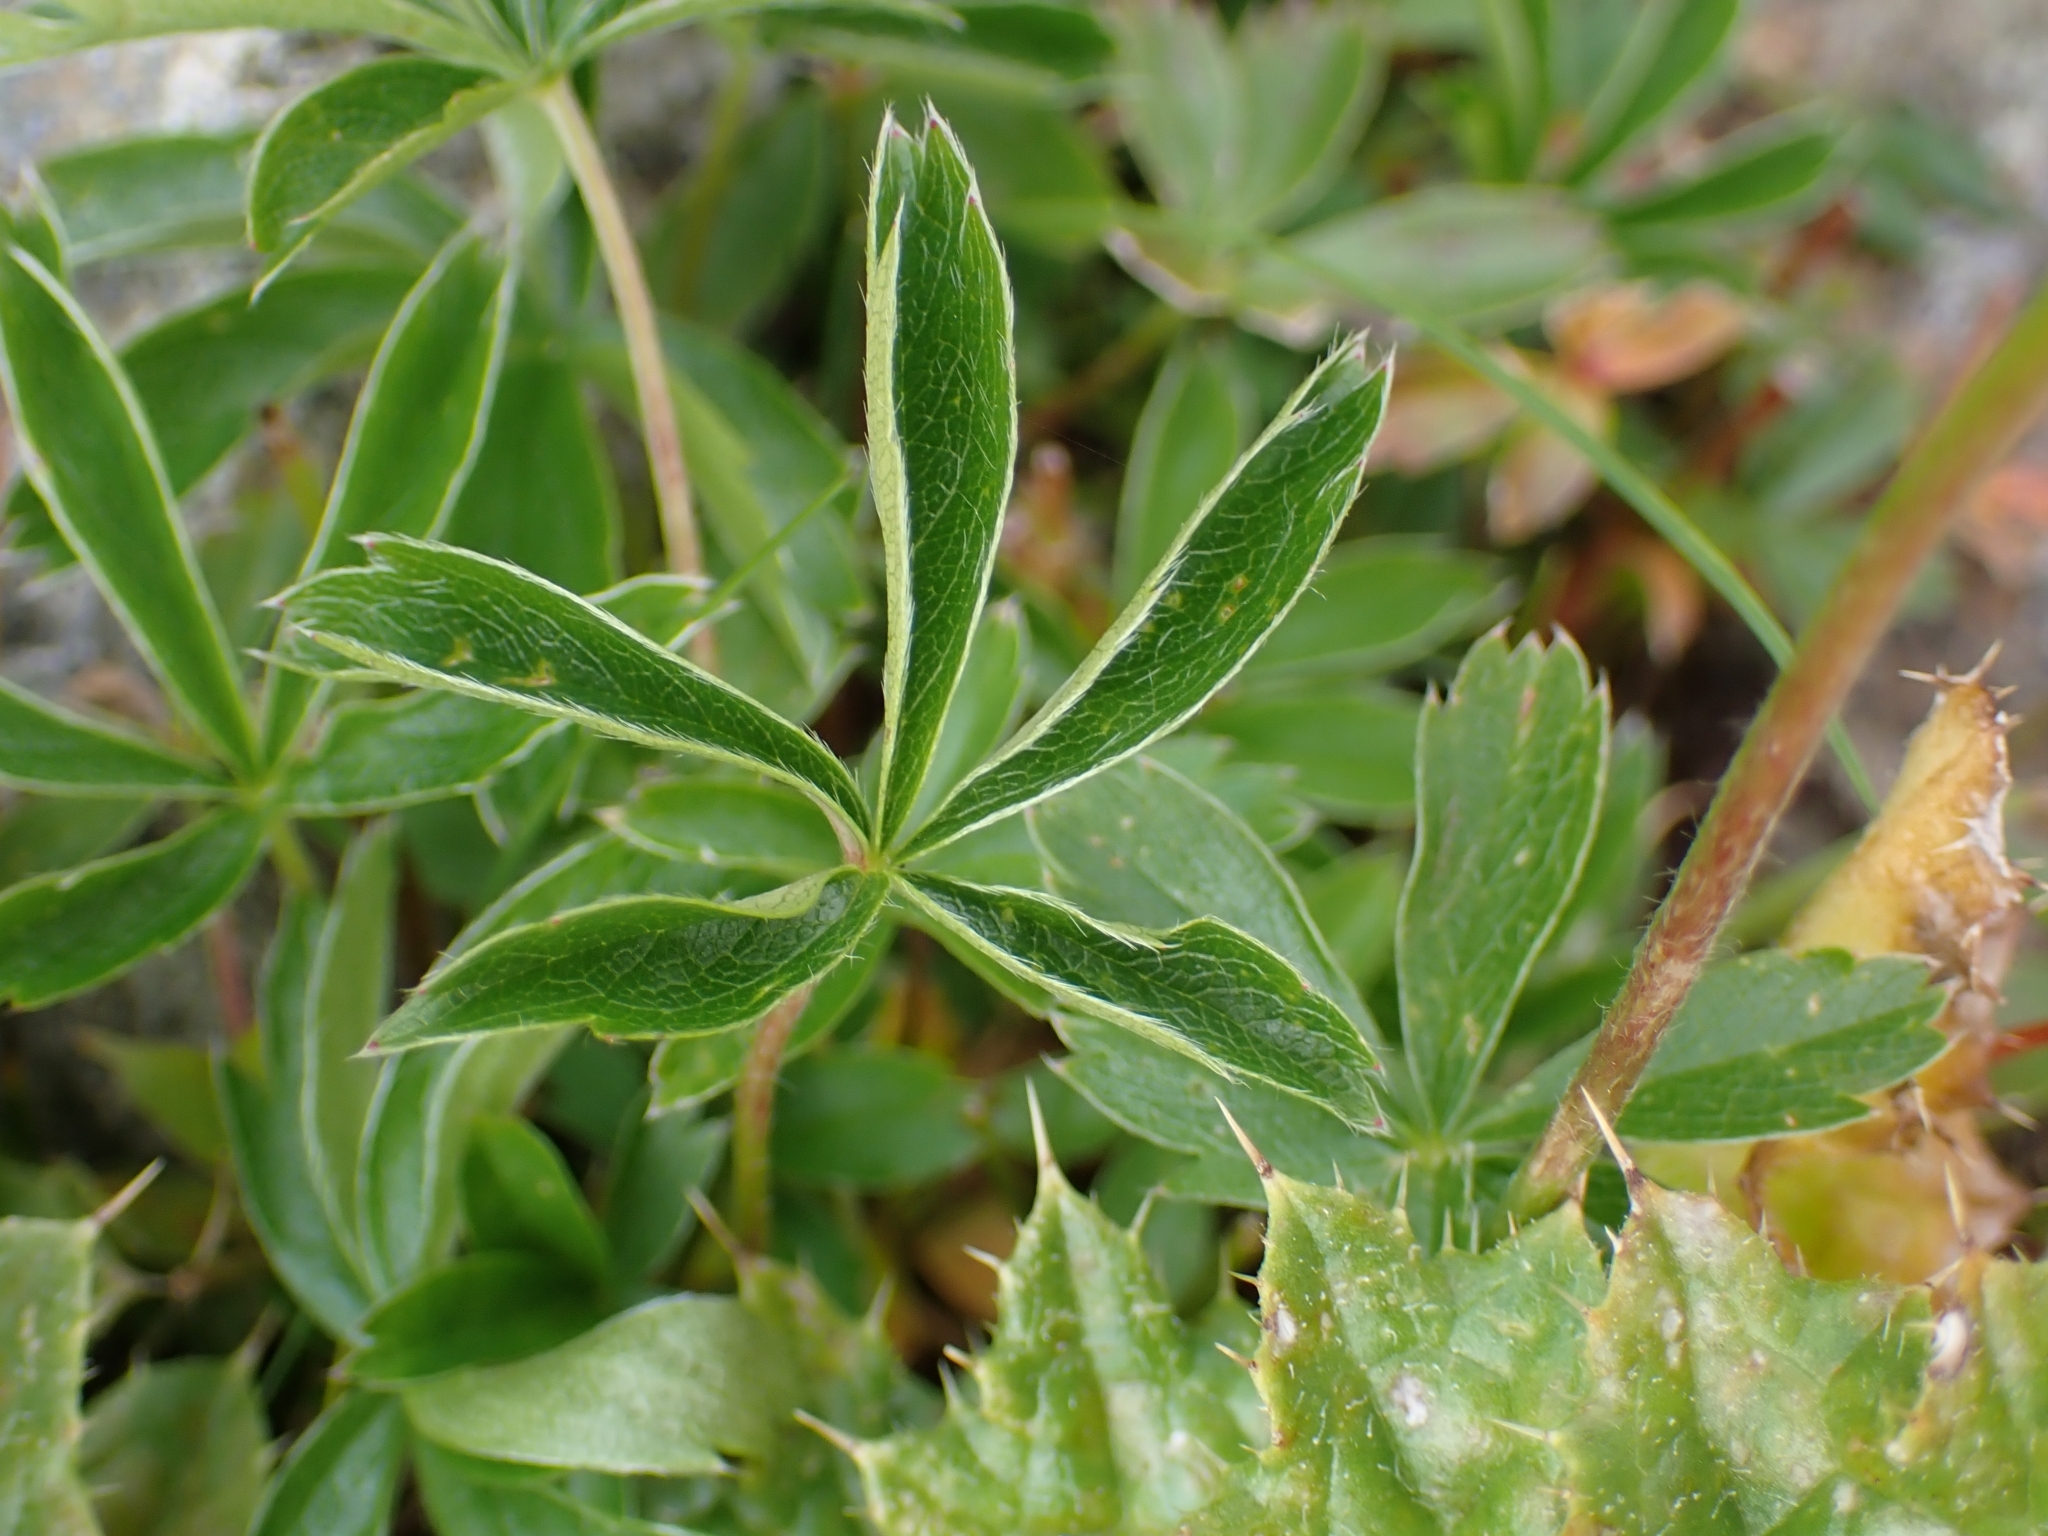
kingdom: Plantae
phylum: Tracheophyta
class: Magnoliopsida
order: Rosales
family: Rosaceae
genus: Potentilla
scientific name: Potentilla aurea
